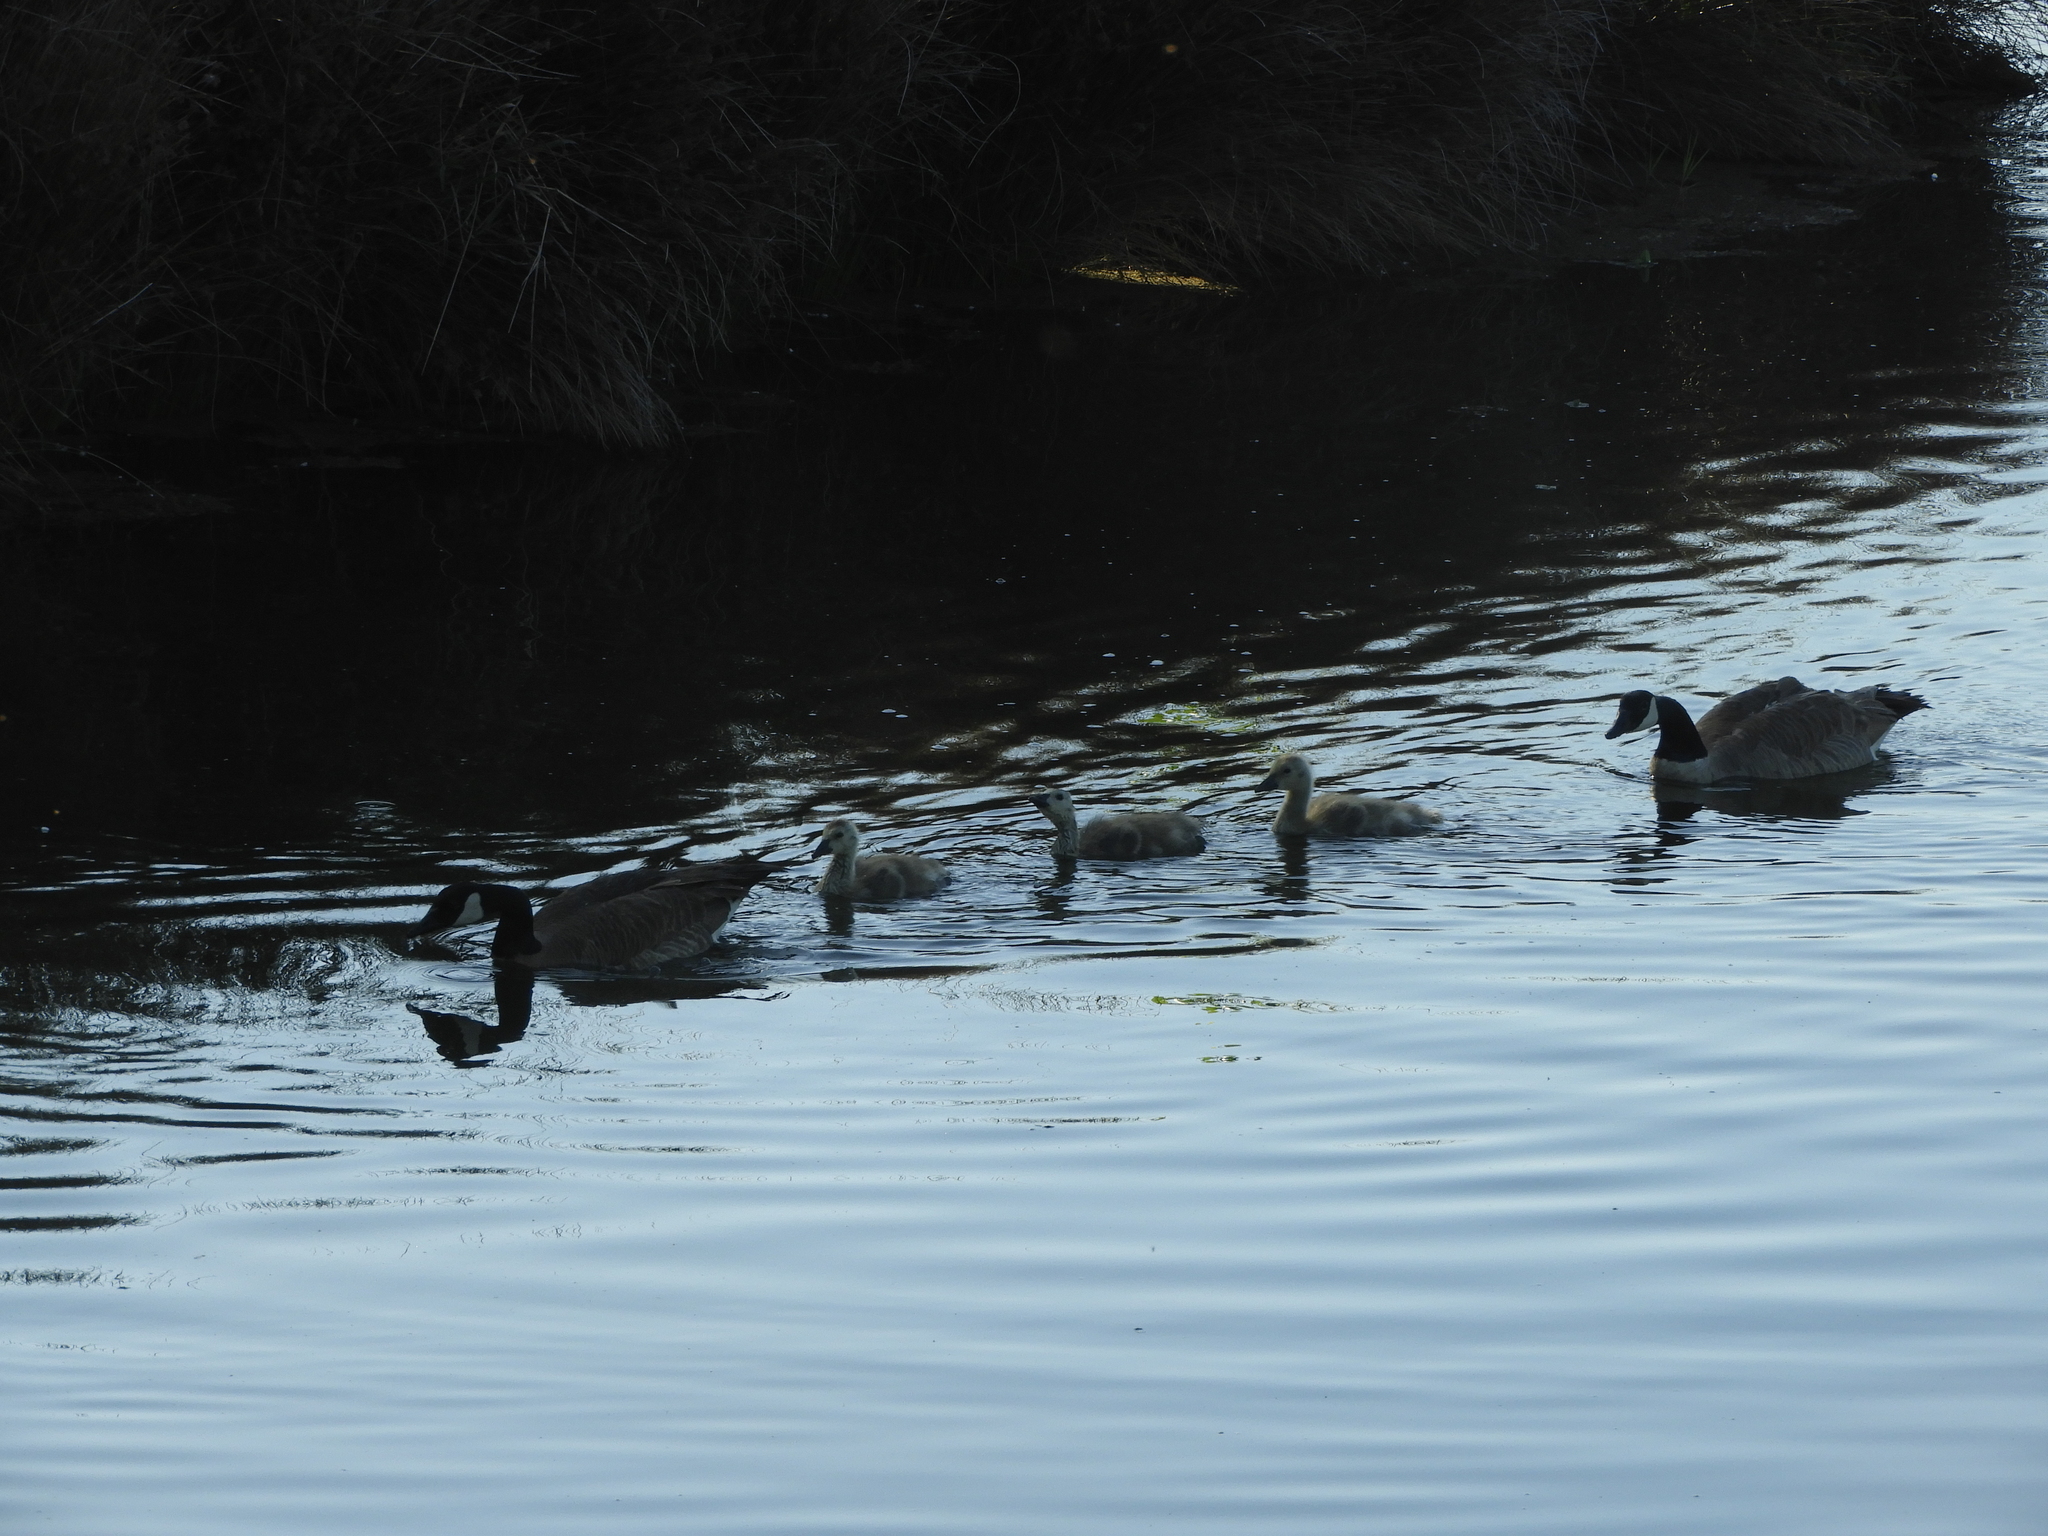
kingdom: Animalia
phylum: Chordata
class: Aves
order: Anseriformes
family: Anatidae
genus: Branta
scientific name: Branta canadensis
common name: Canada goose
